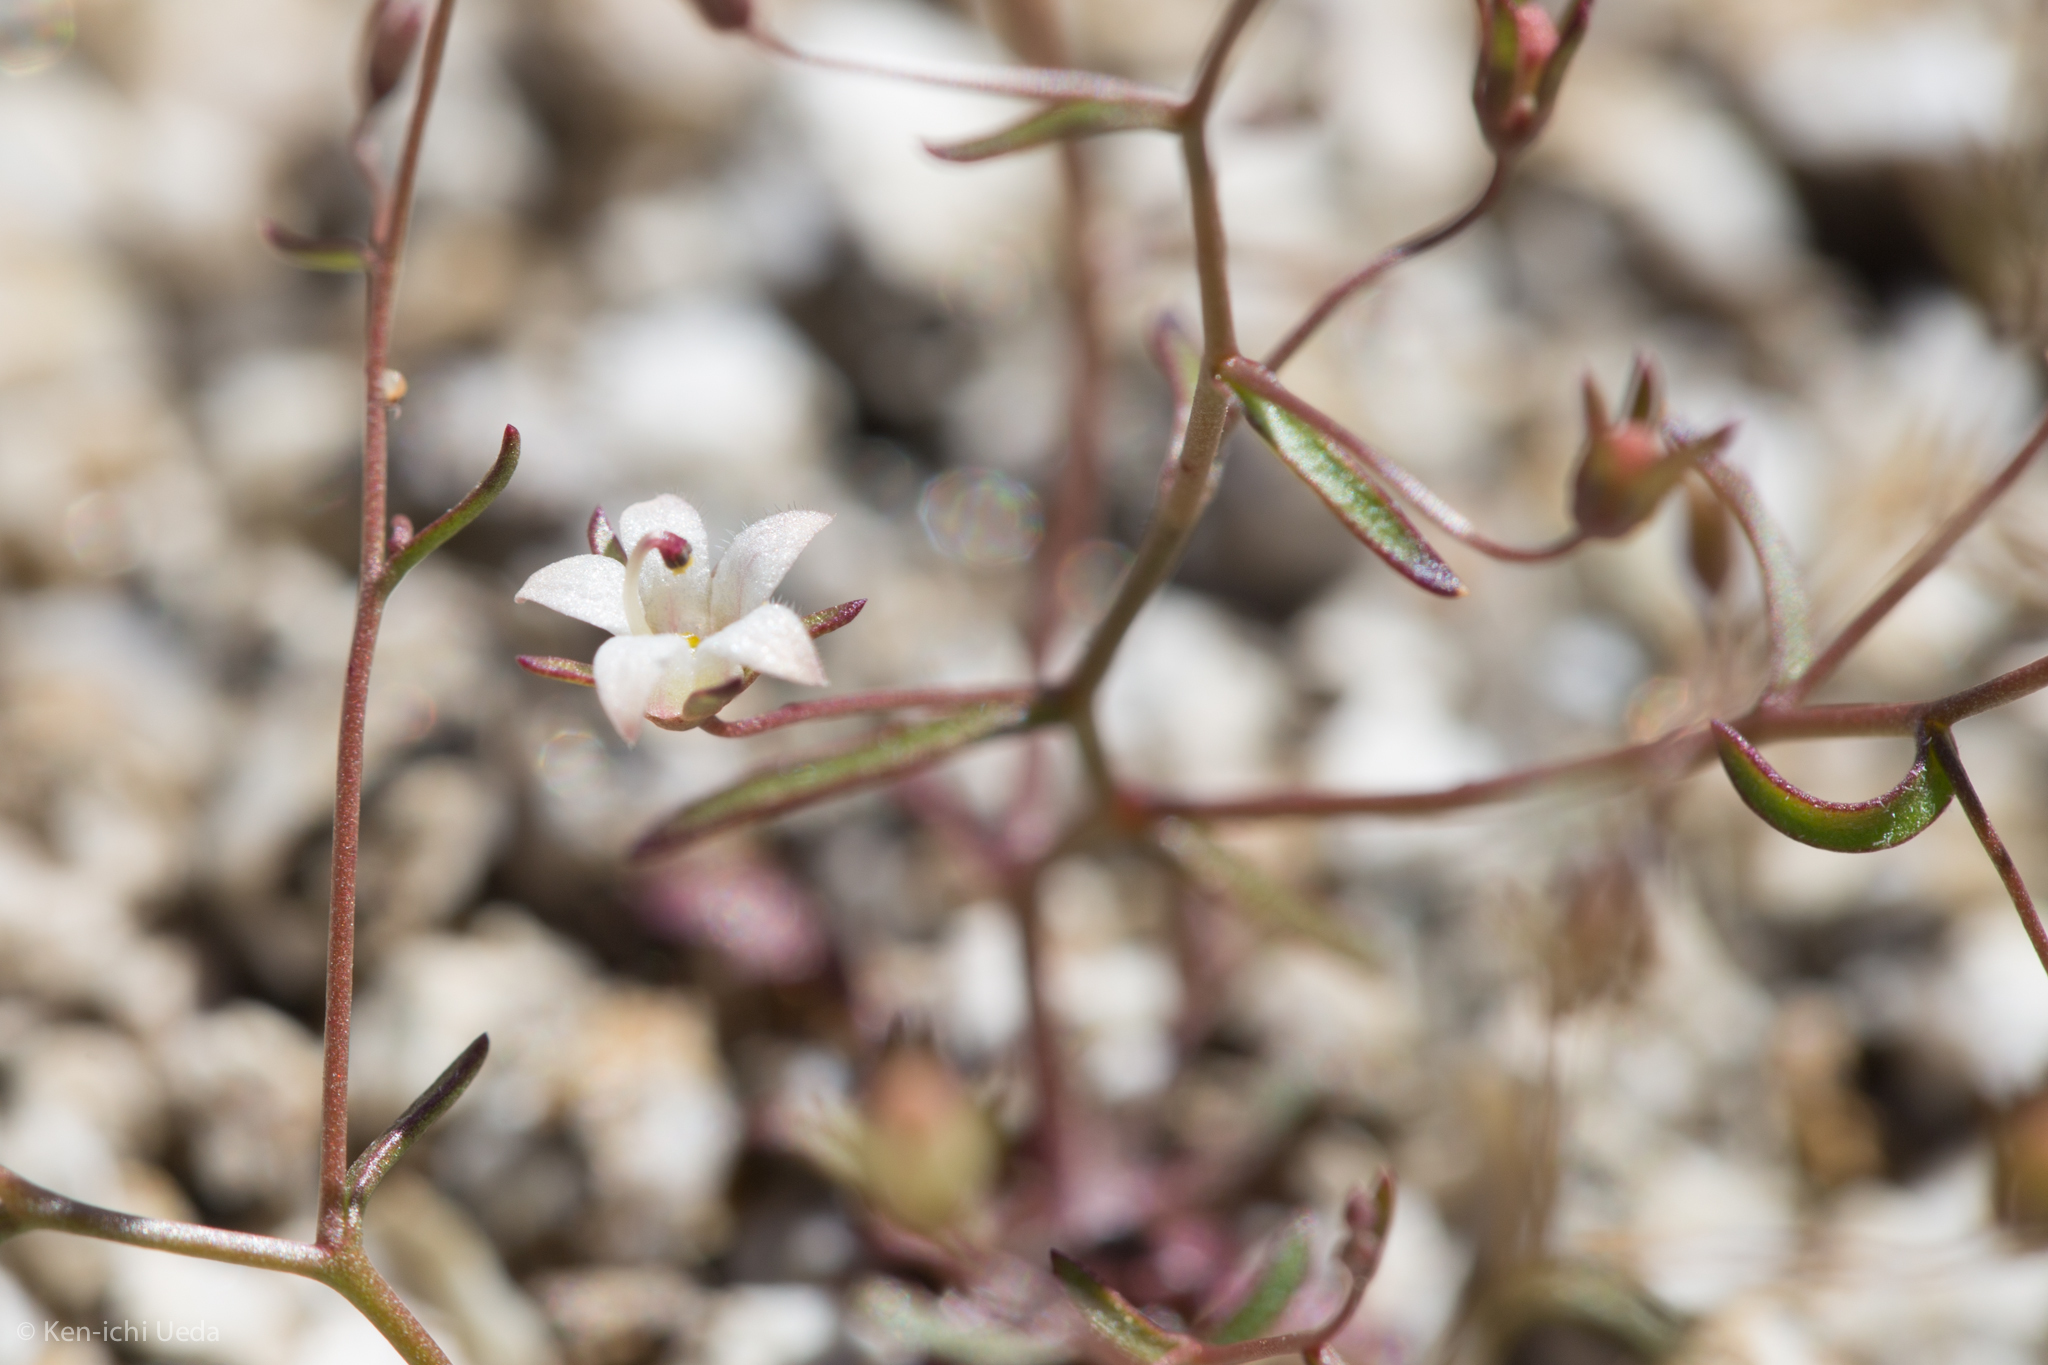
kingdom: Plantae
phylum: Tracheophyta
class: Magnoliopsida
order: Asterales
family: Campanulaceae
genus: Nemacladus
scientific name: Nemacladus glanduliferus
